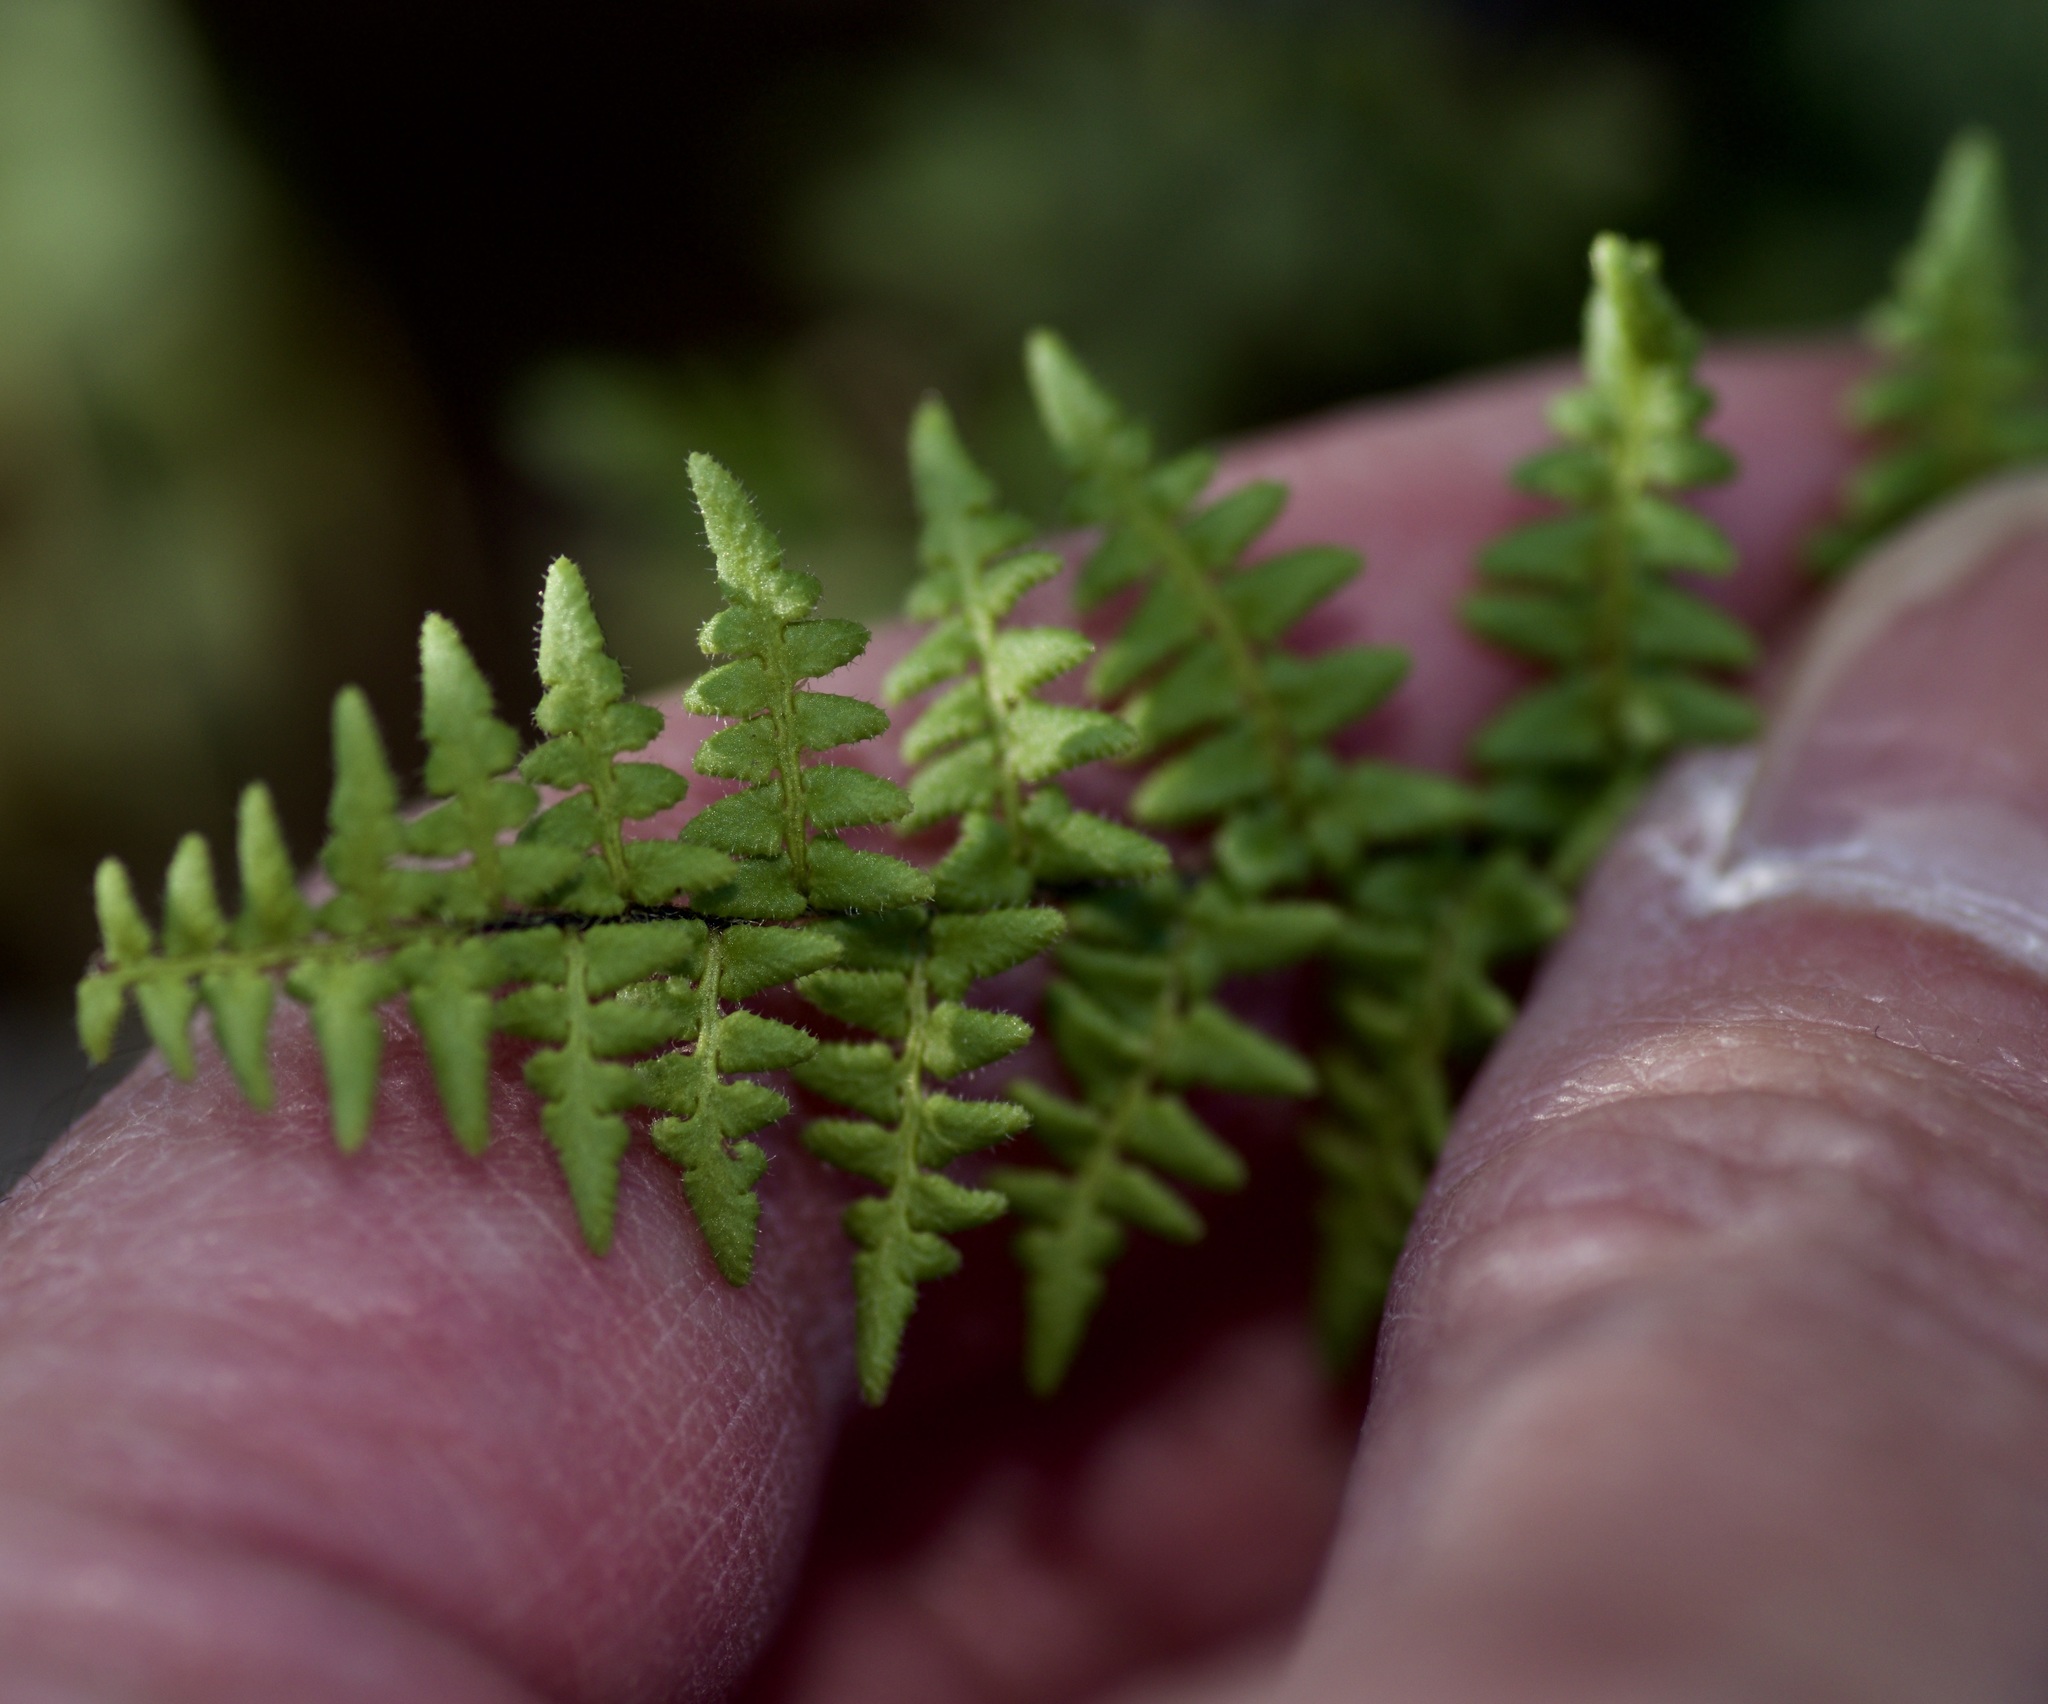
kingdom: Plantae
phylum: Tracheophyta
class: Polypodiopsida
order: Polypodiales
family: Pteridaceae
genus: Myriopteris
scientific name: Myriopteris scabra
